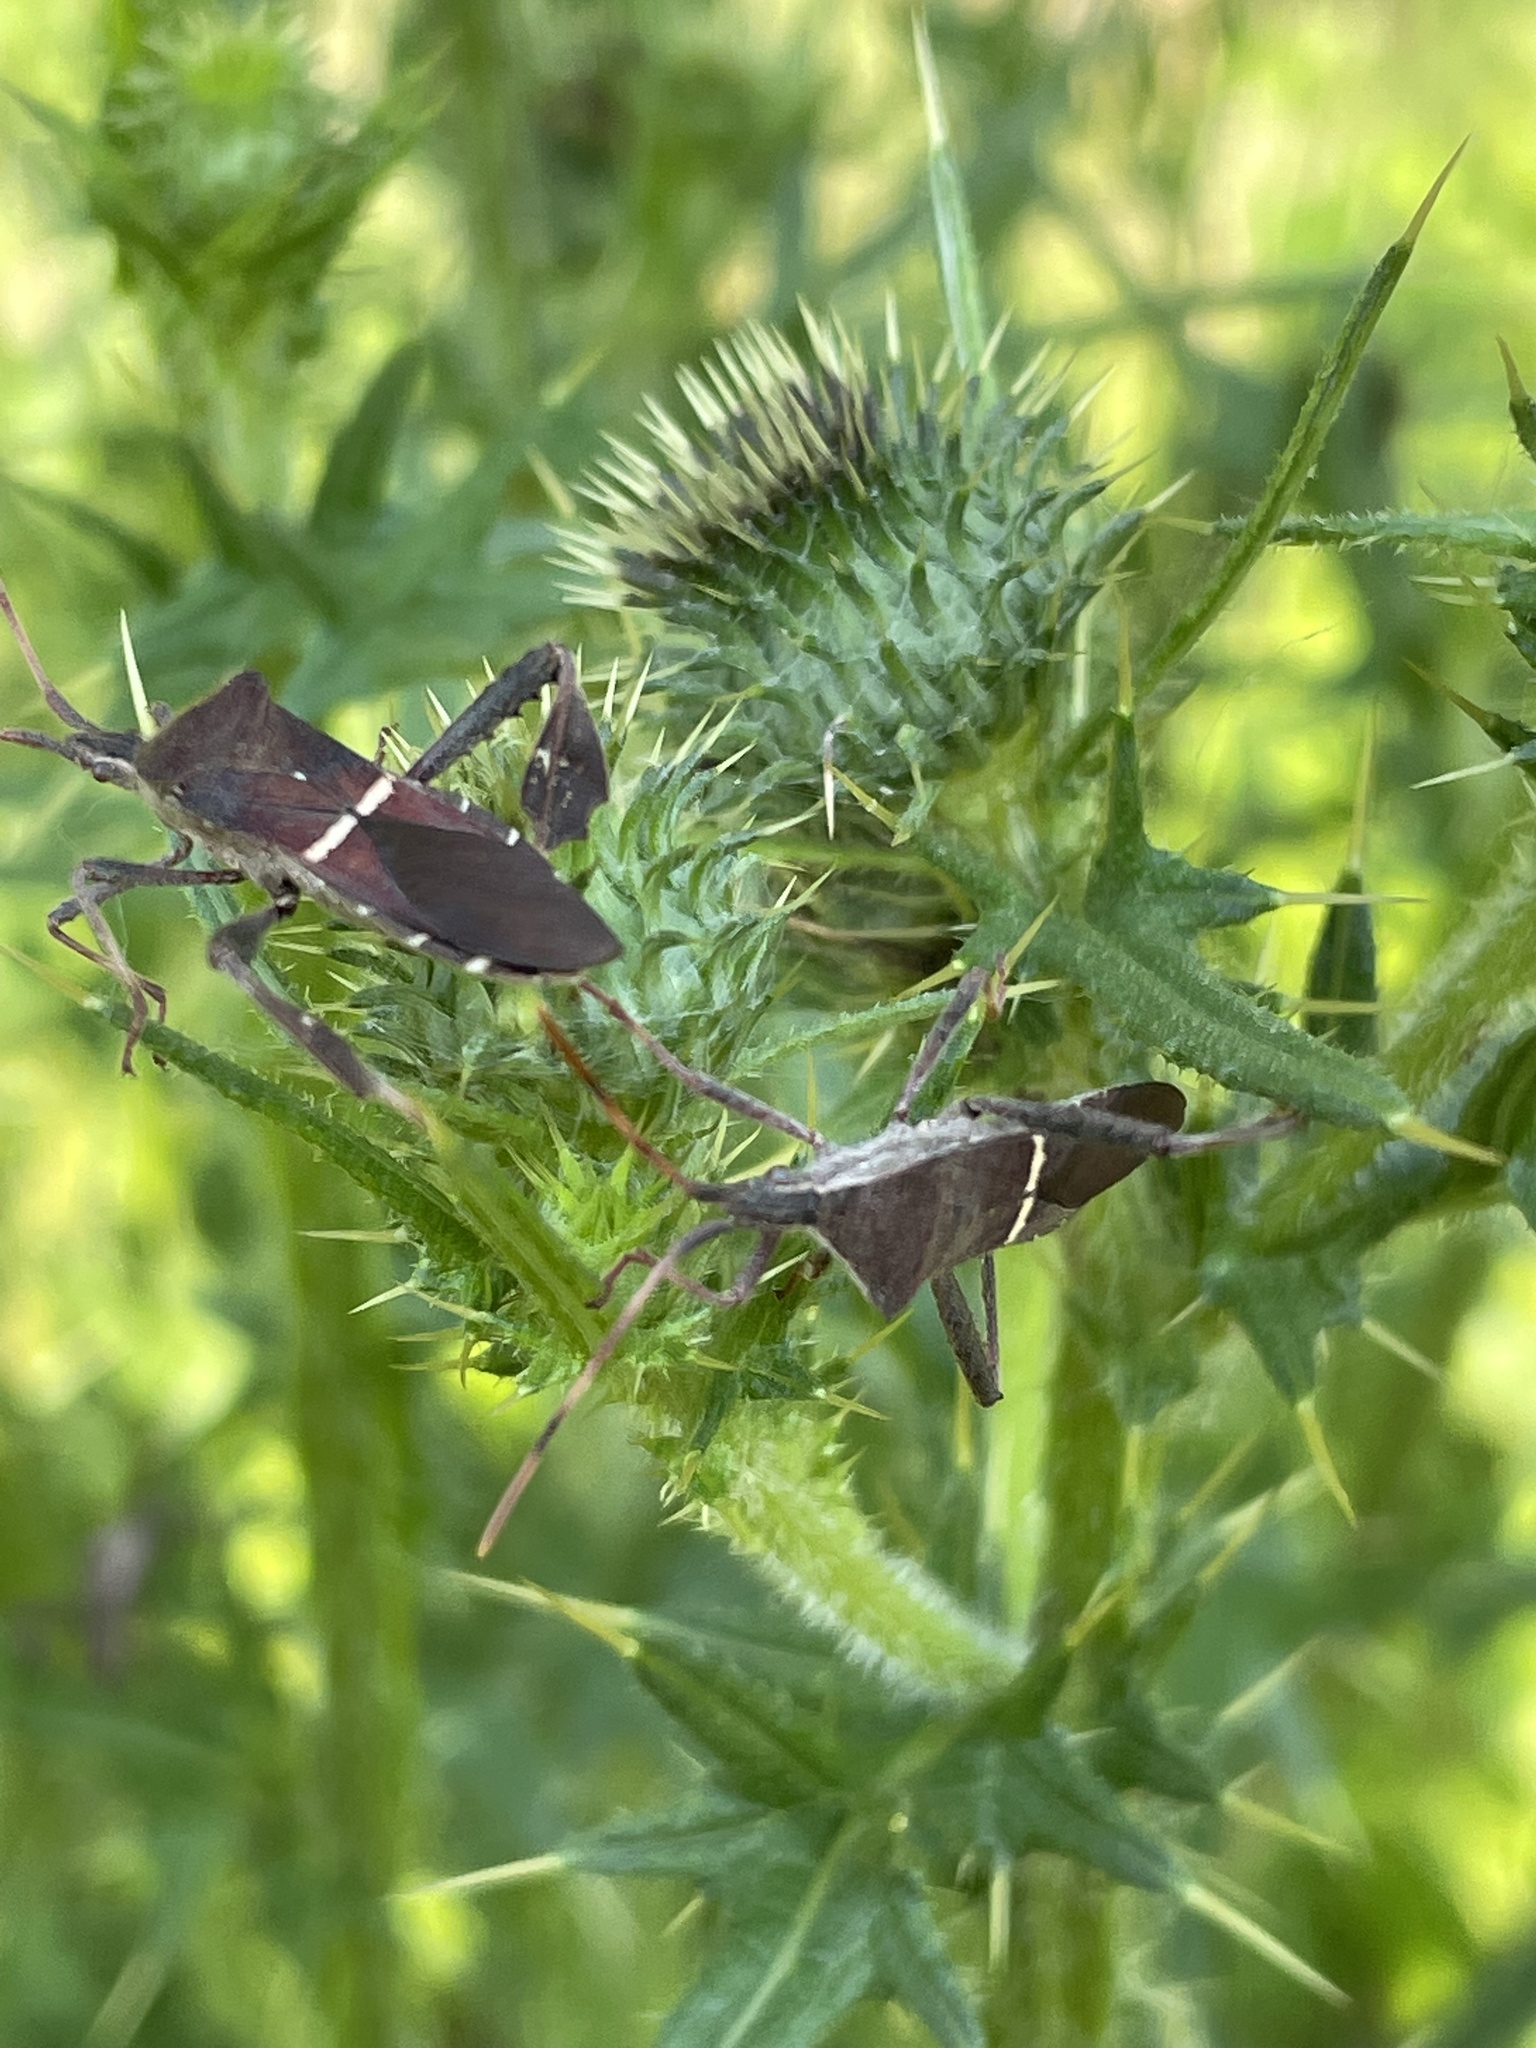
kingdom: Animalia
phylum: Arthropoda
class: Insecta
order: Hemiptera
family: Coreidae
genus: Leptoglossus
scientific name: Leptoglossus phyllopus
